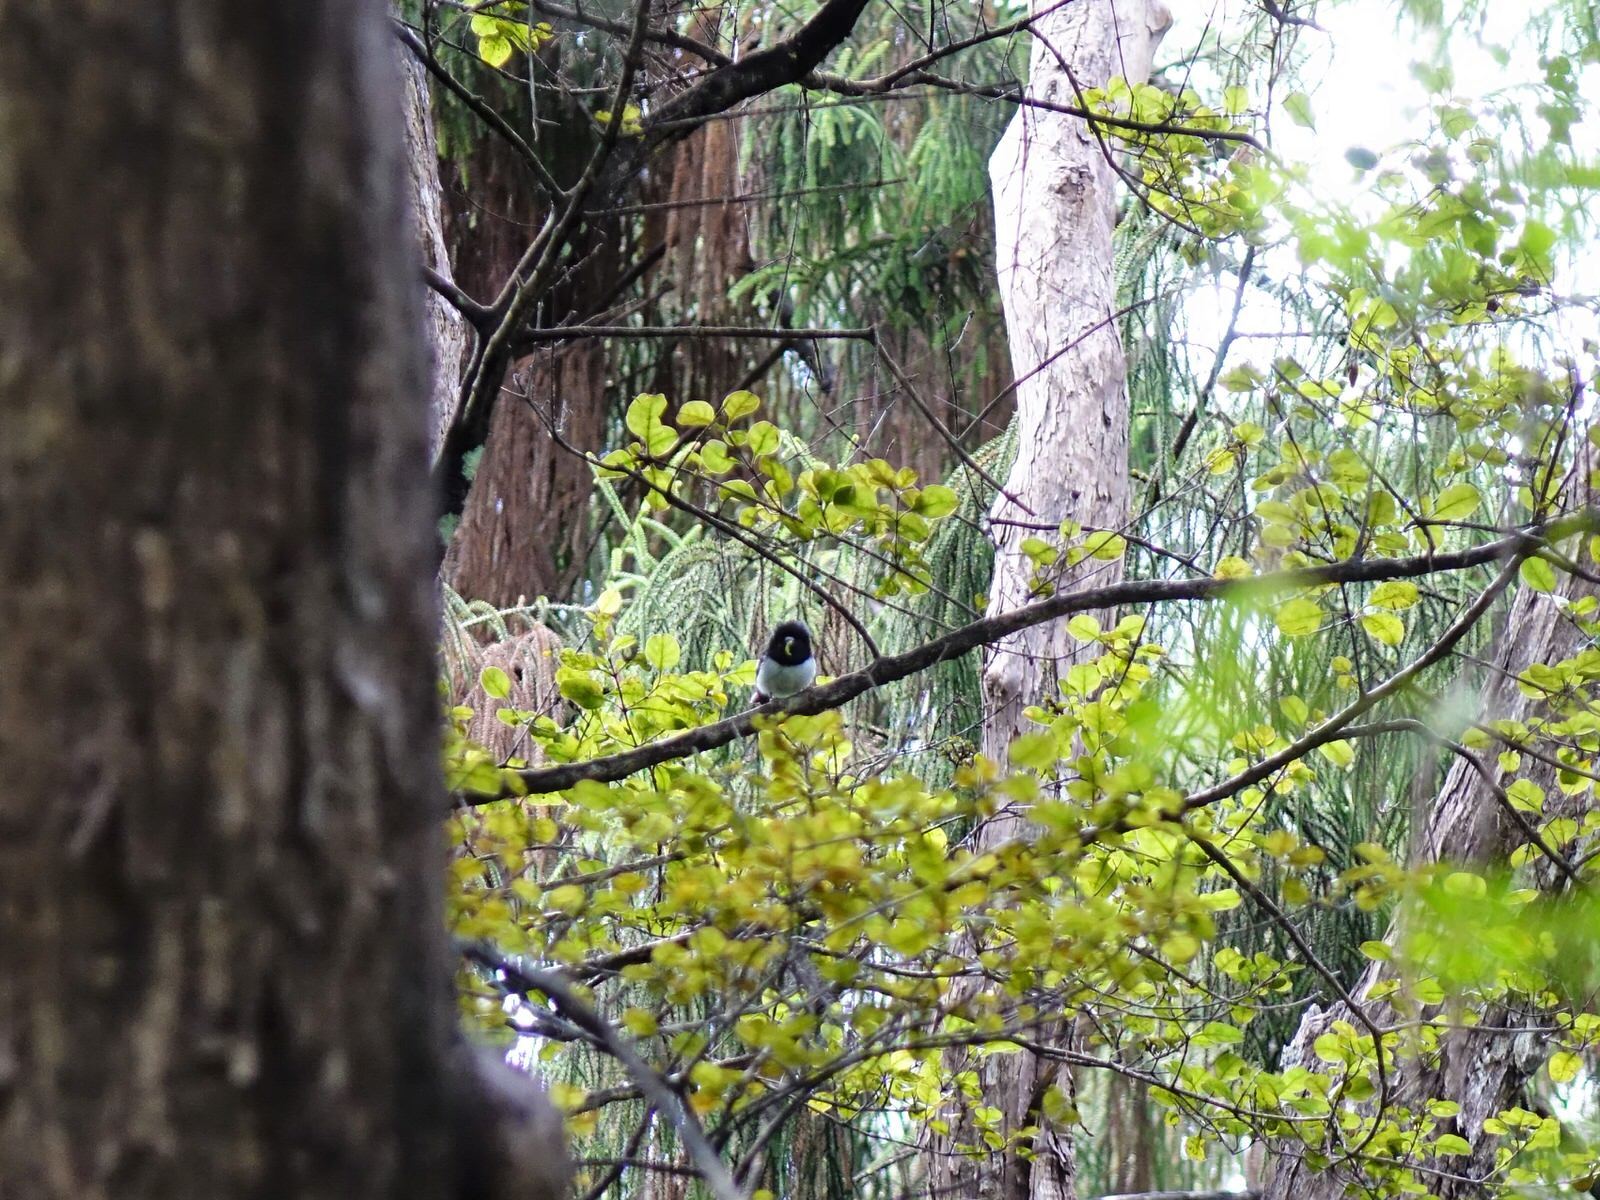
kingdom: Animalia
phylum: Chordata
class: Aves
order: Passeriformes
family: Petroicidae
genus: Petroica
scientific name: Petroica macrocephala
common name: Tomtit
